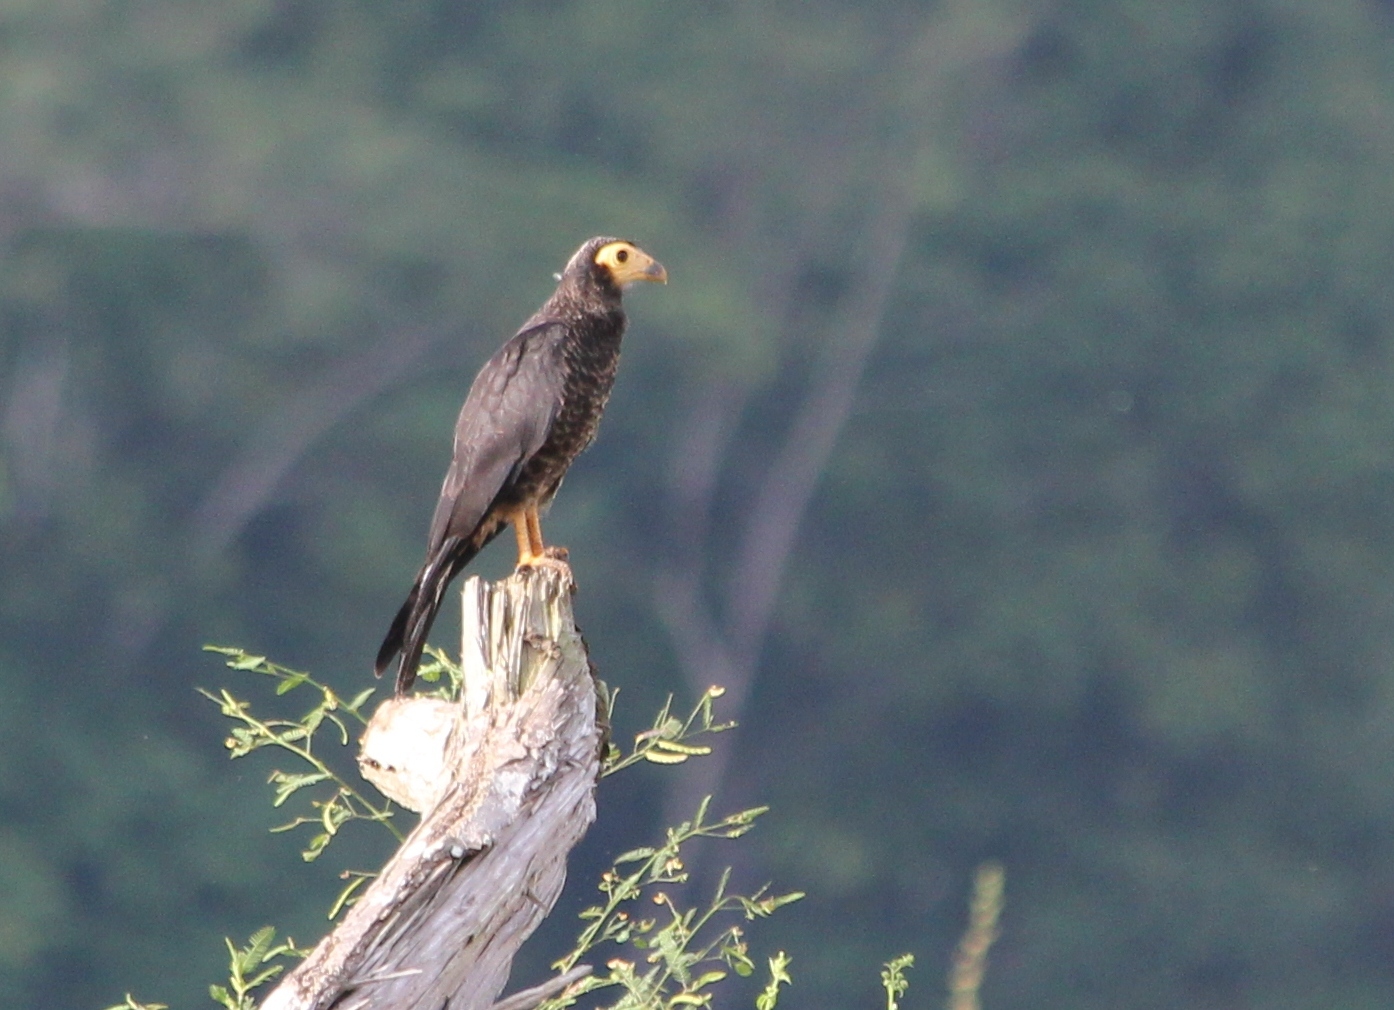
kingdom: Animalia
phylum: Chordata
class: Aves
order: Falconiformes
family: Falconidae
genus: Daptrius
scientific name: Daptrius ater
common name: Black caracara
